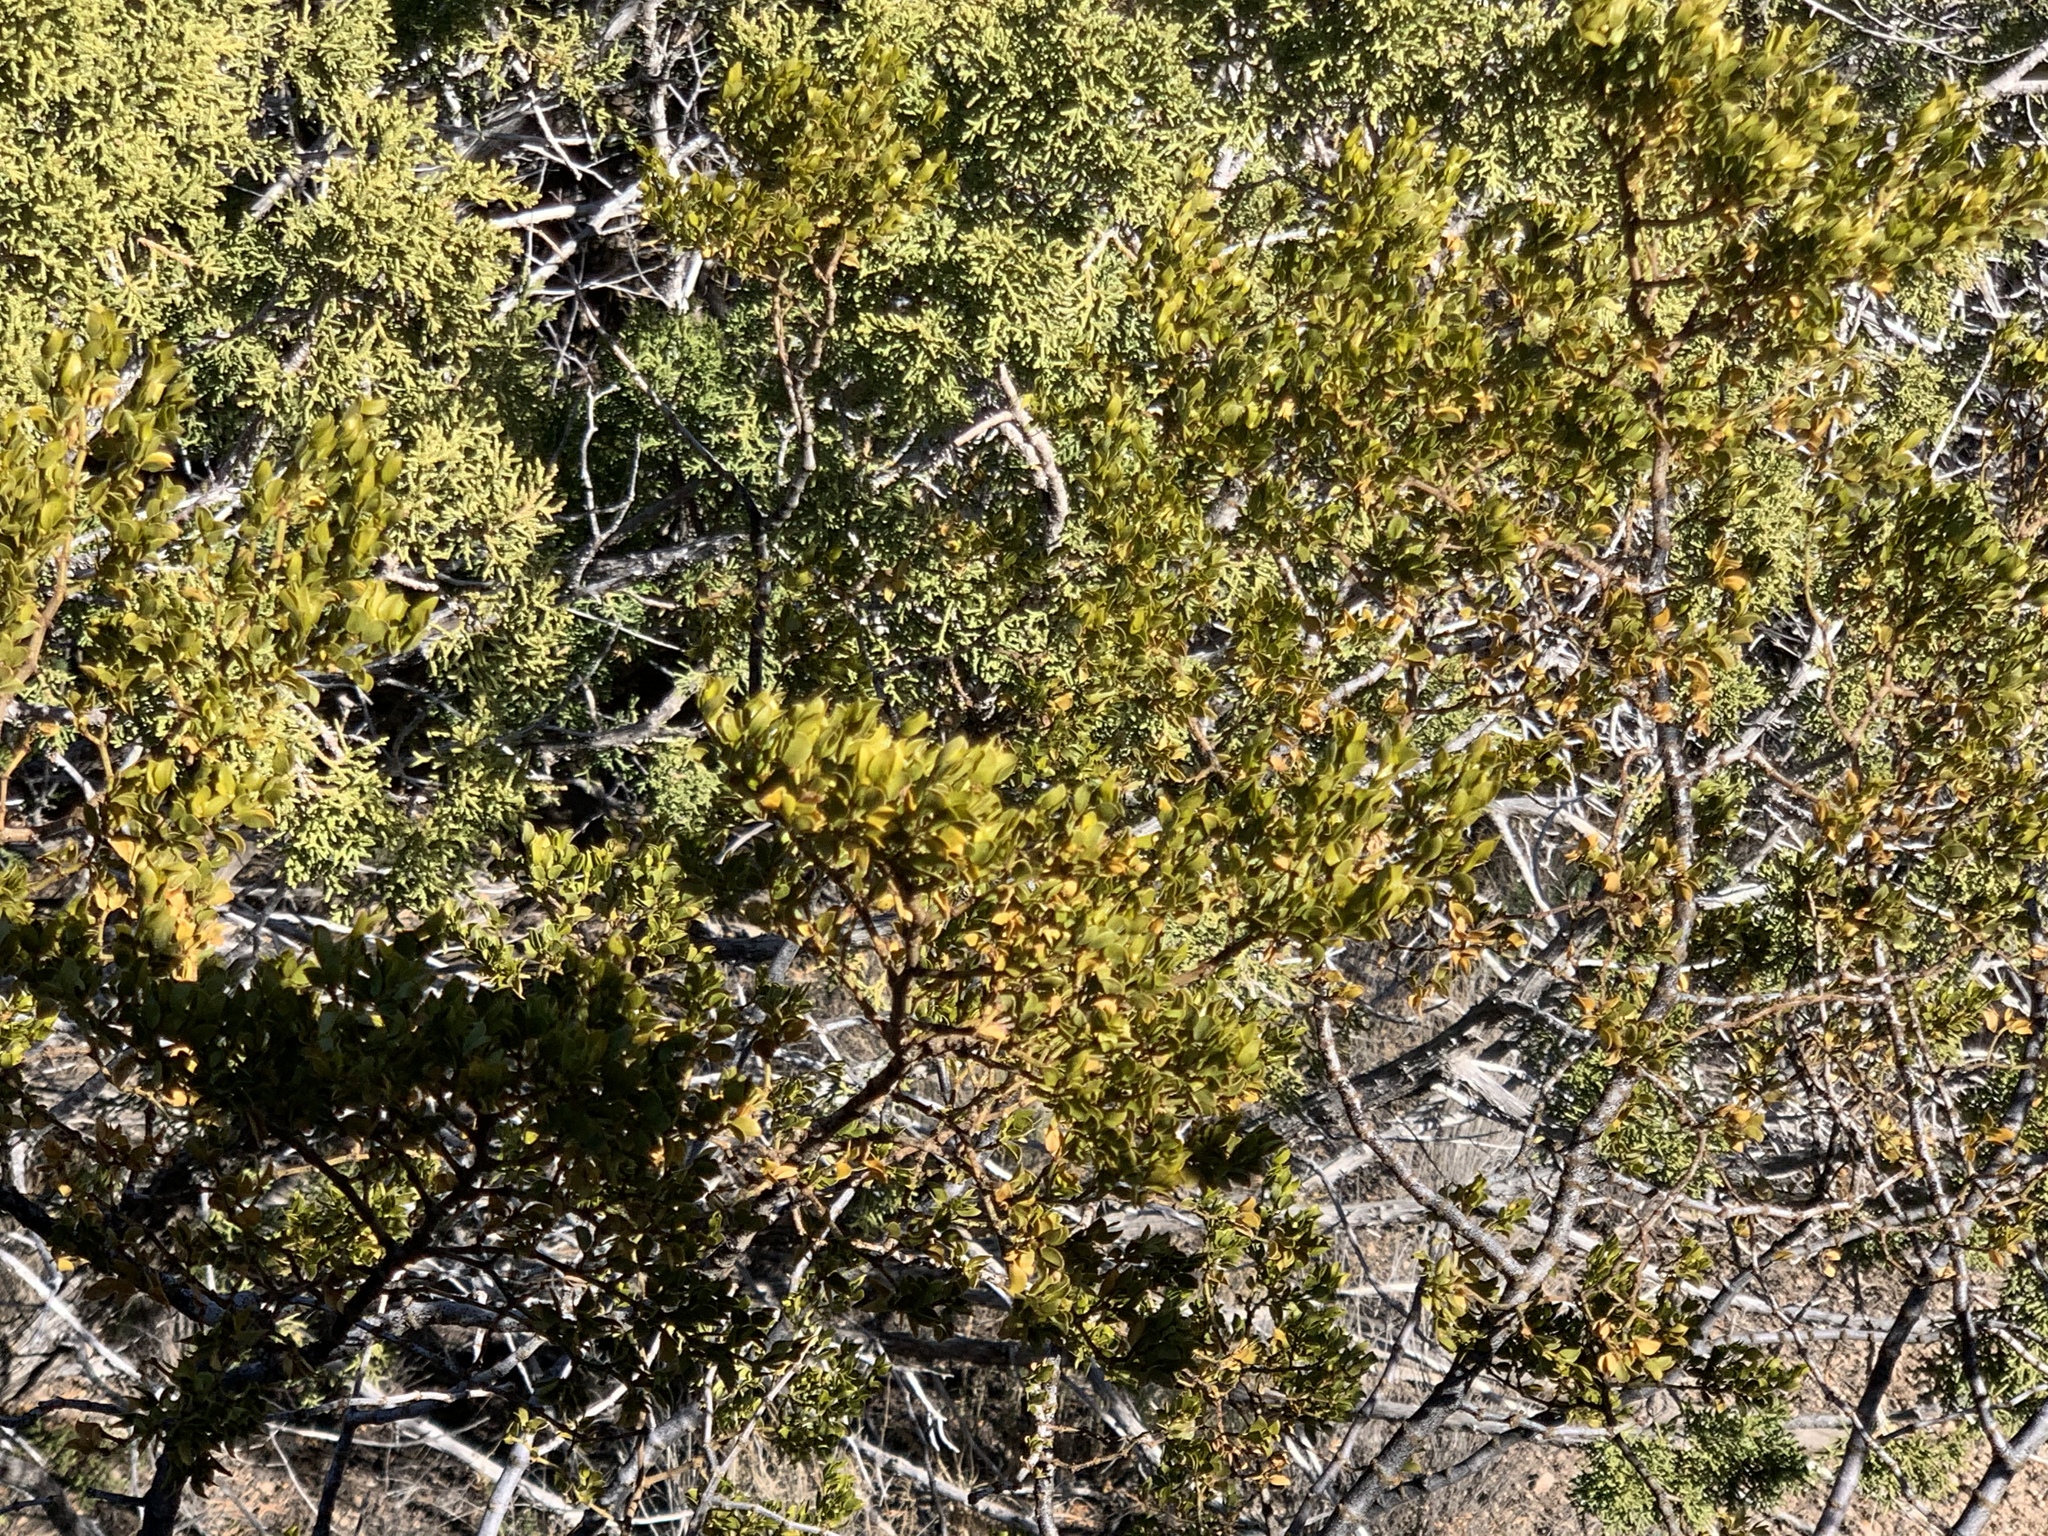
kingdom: Plantae
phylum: Tracheophyta
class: Magnoliopsida
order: Zygophyllales
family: Zygophyllaceae
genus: Larrea
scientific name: Larrea tridentata
